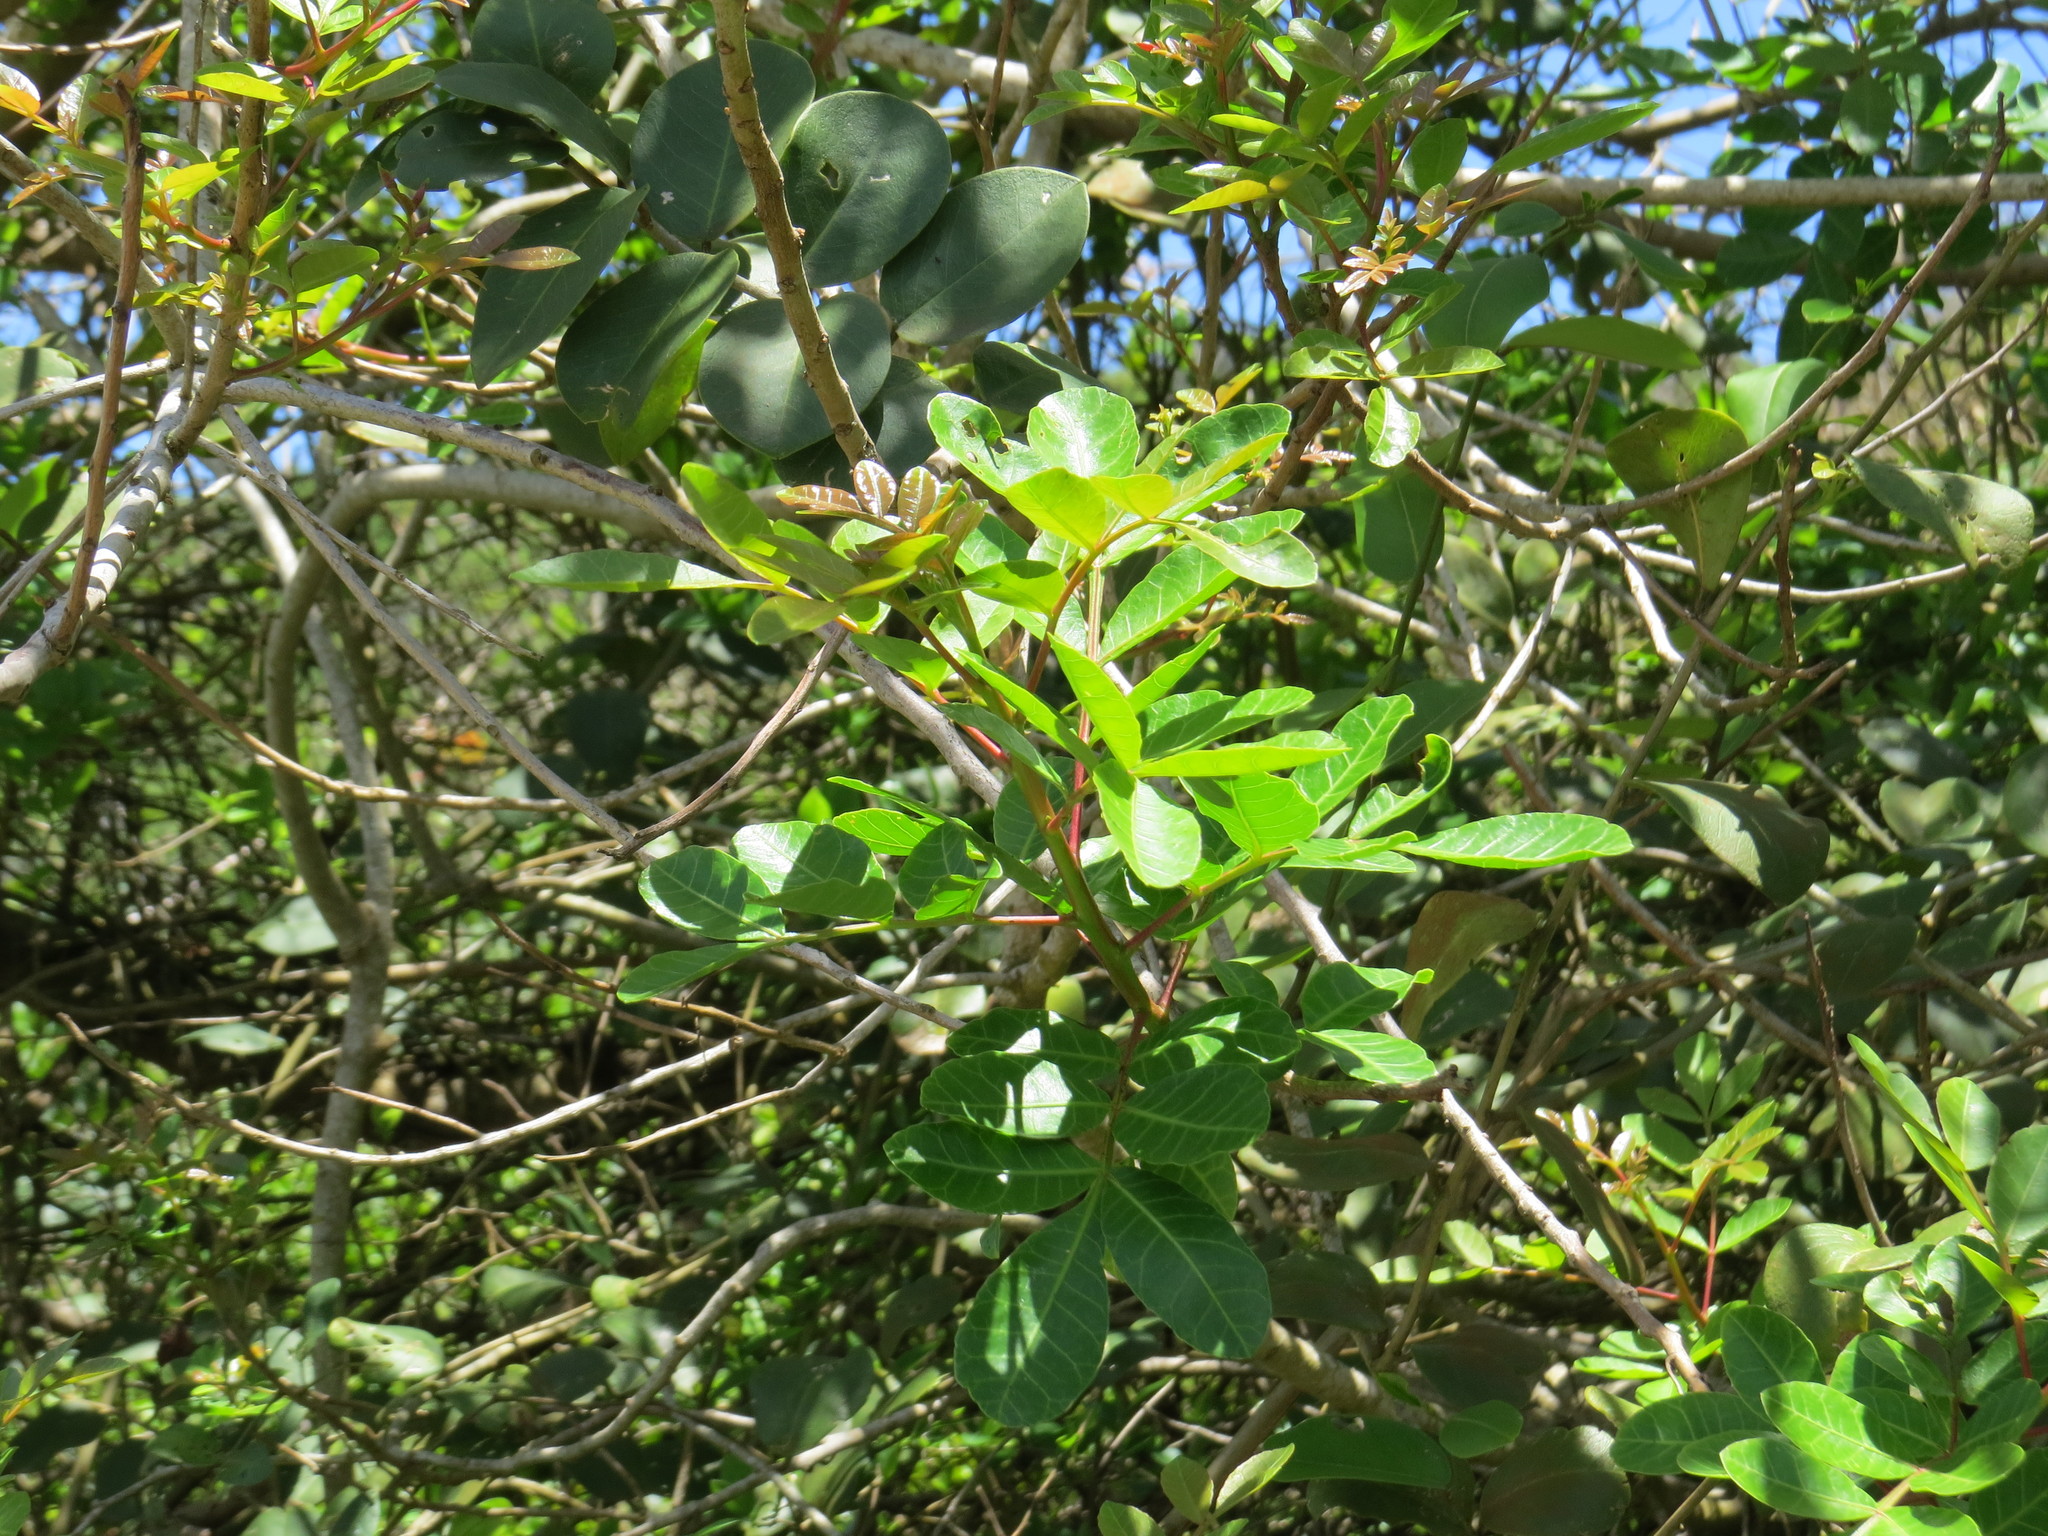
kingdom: Plantae
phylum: Tracheophyta
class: Magnoliopsida
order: Sapindales
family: Anacardiaceae
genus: Schinus
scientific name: Schinus terebinthifolia
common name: Brazilian peppertree
